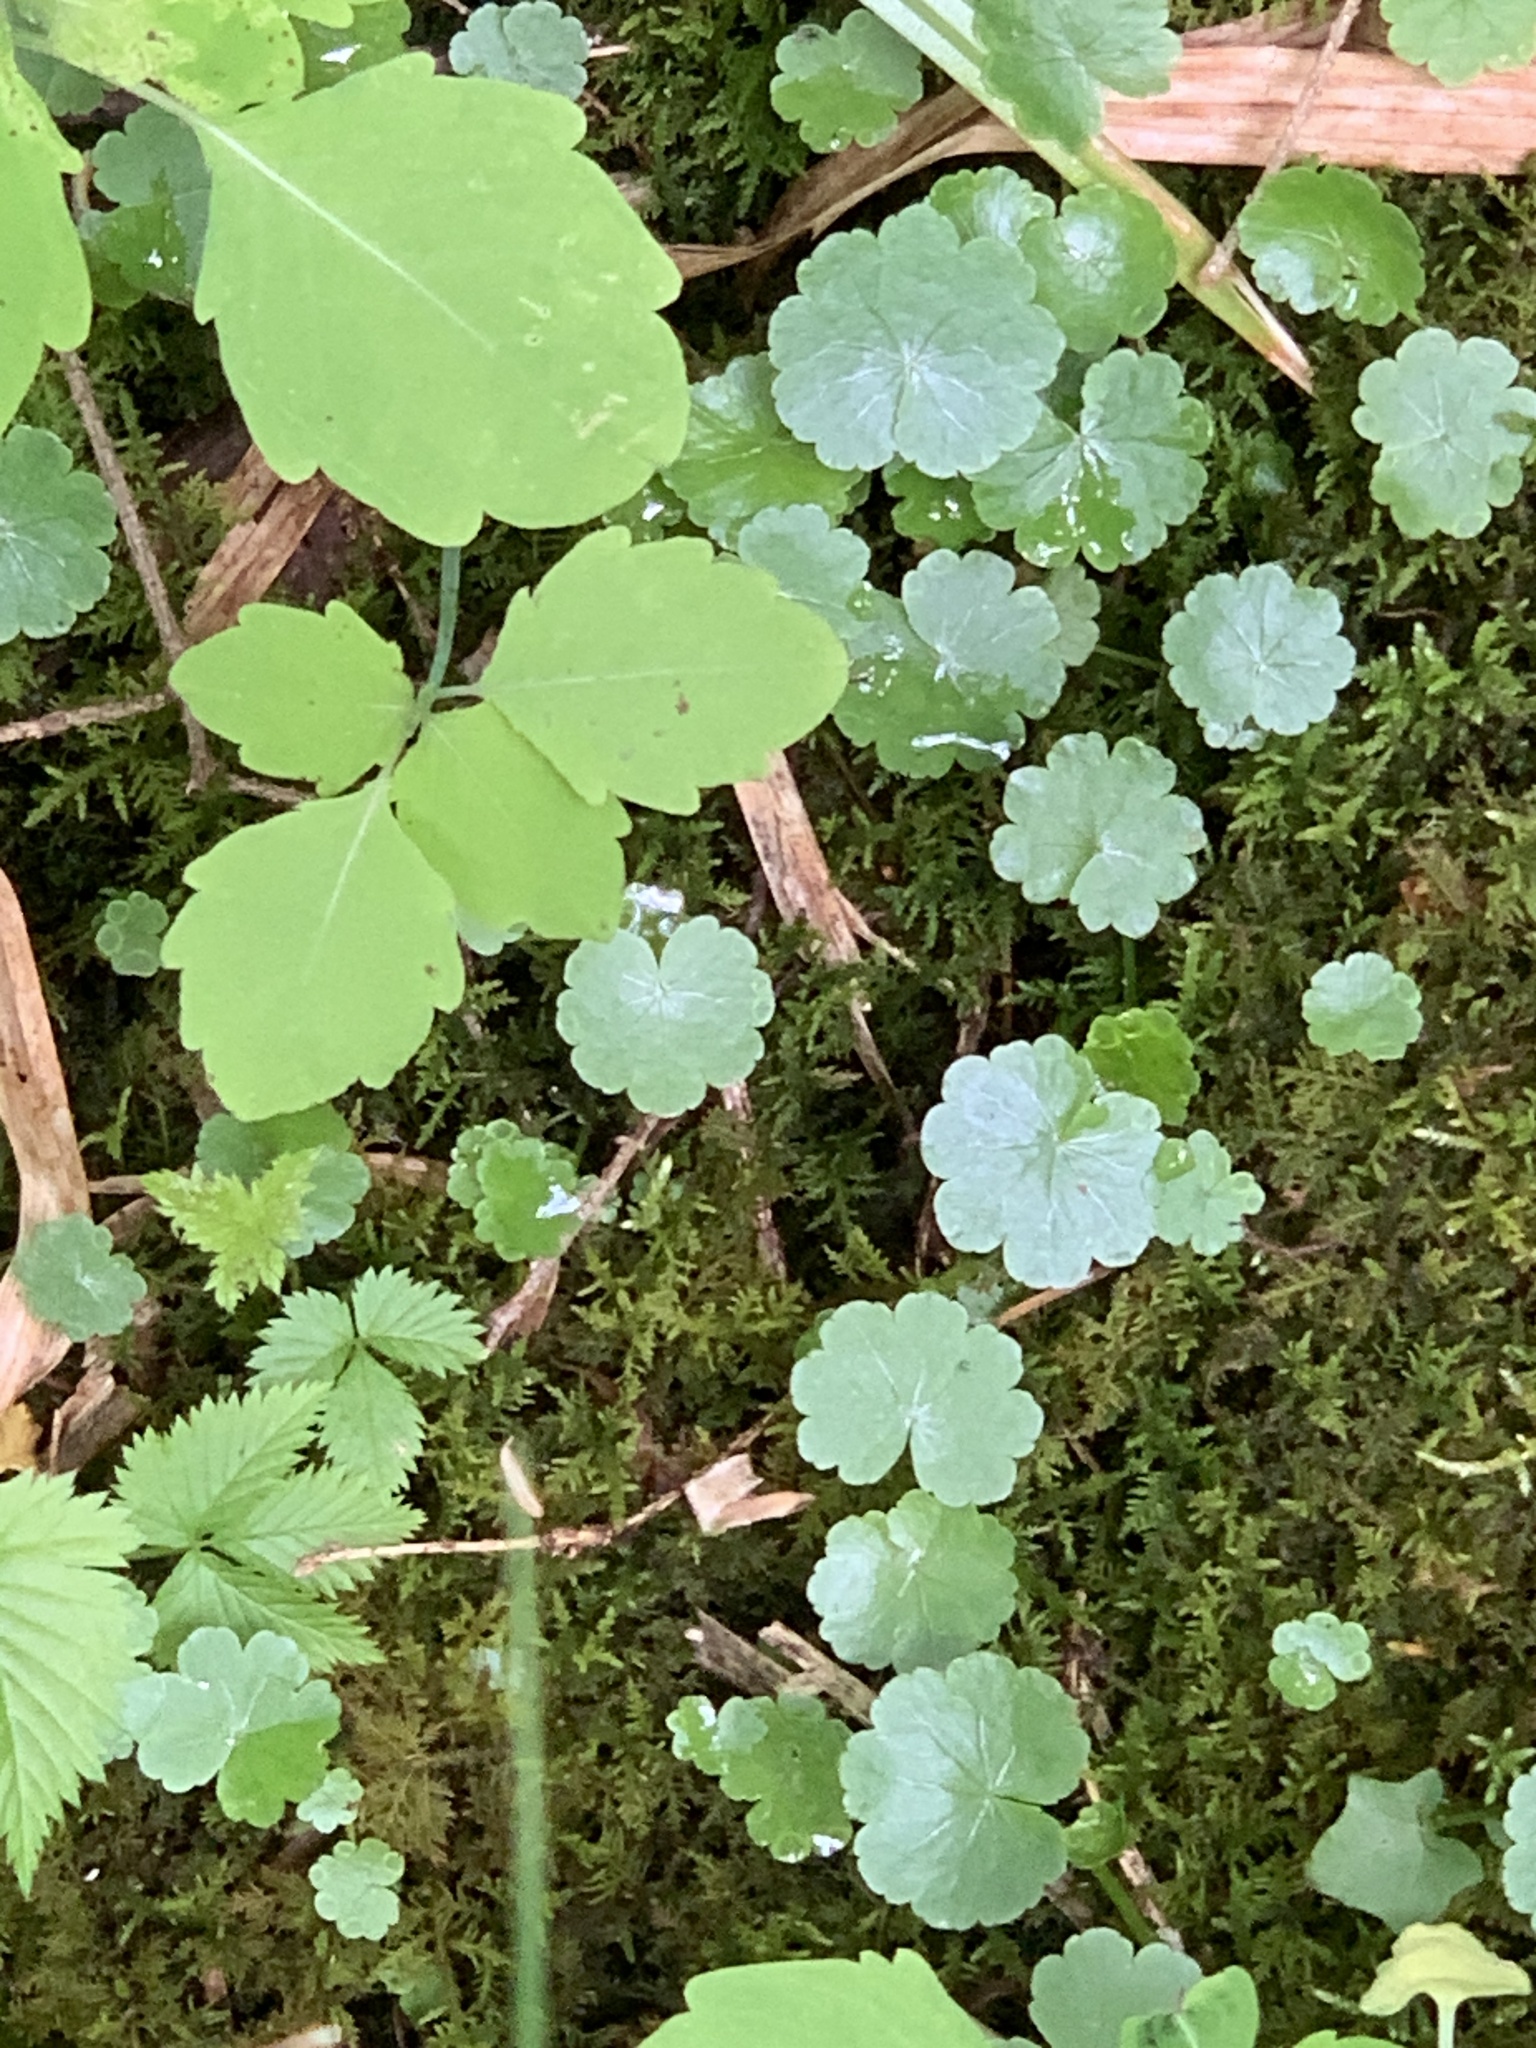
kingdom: Plantae
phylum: Tracheophyta
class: Magnoliopsida
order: Apiales
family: Araliaceae
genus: Hydrocotyle
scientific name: Hydrocotyle americana
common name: American water-pennywort
